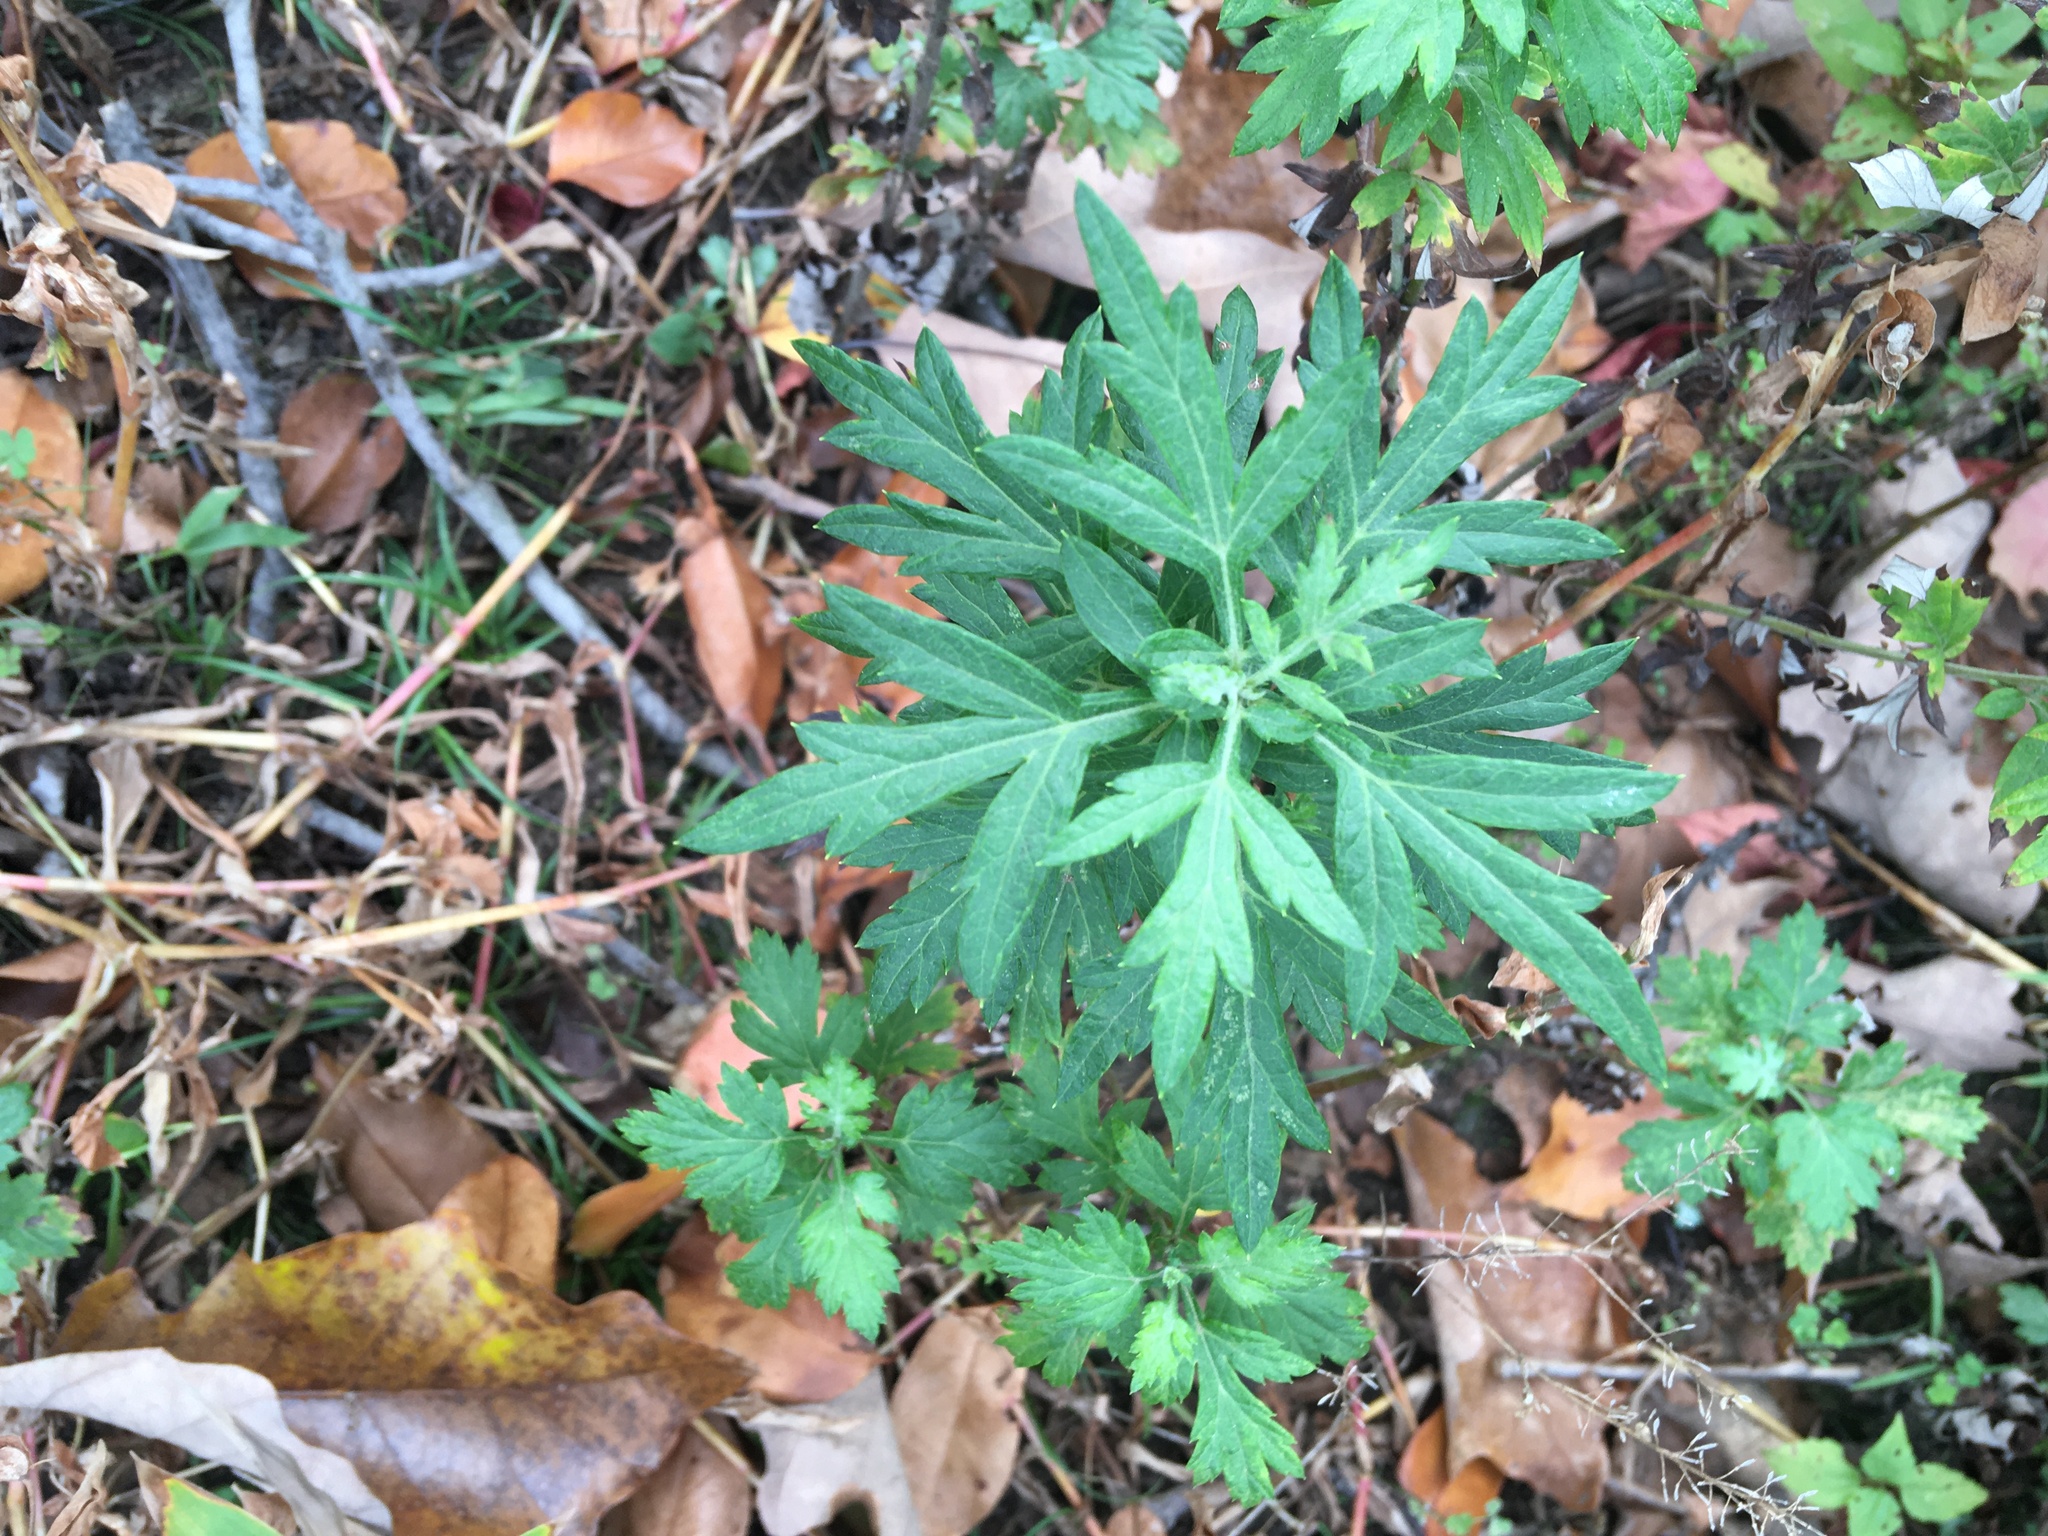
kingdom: Plantae
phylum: Tracheophyta
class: Magnoliopsida
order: Asterales
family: Asteraceae
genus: Artemisia
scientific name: Artemisia vulgaris
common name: Mugwort
